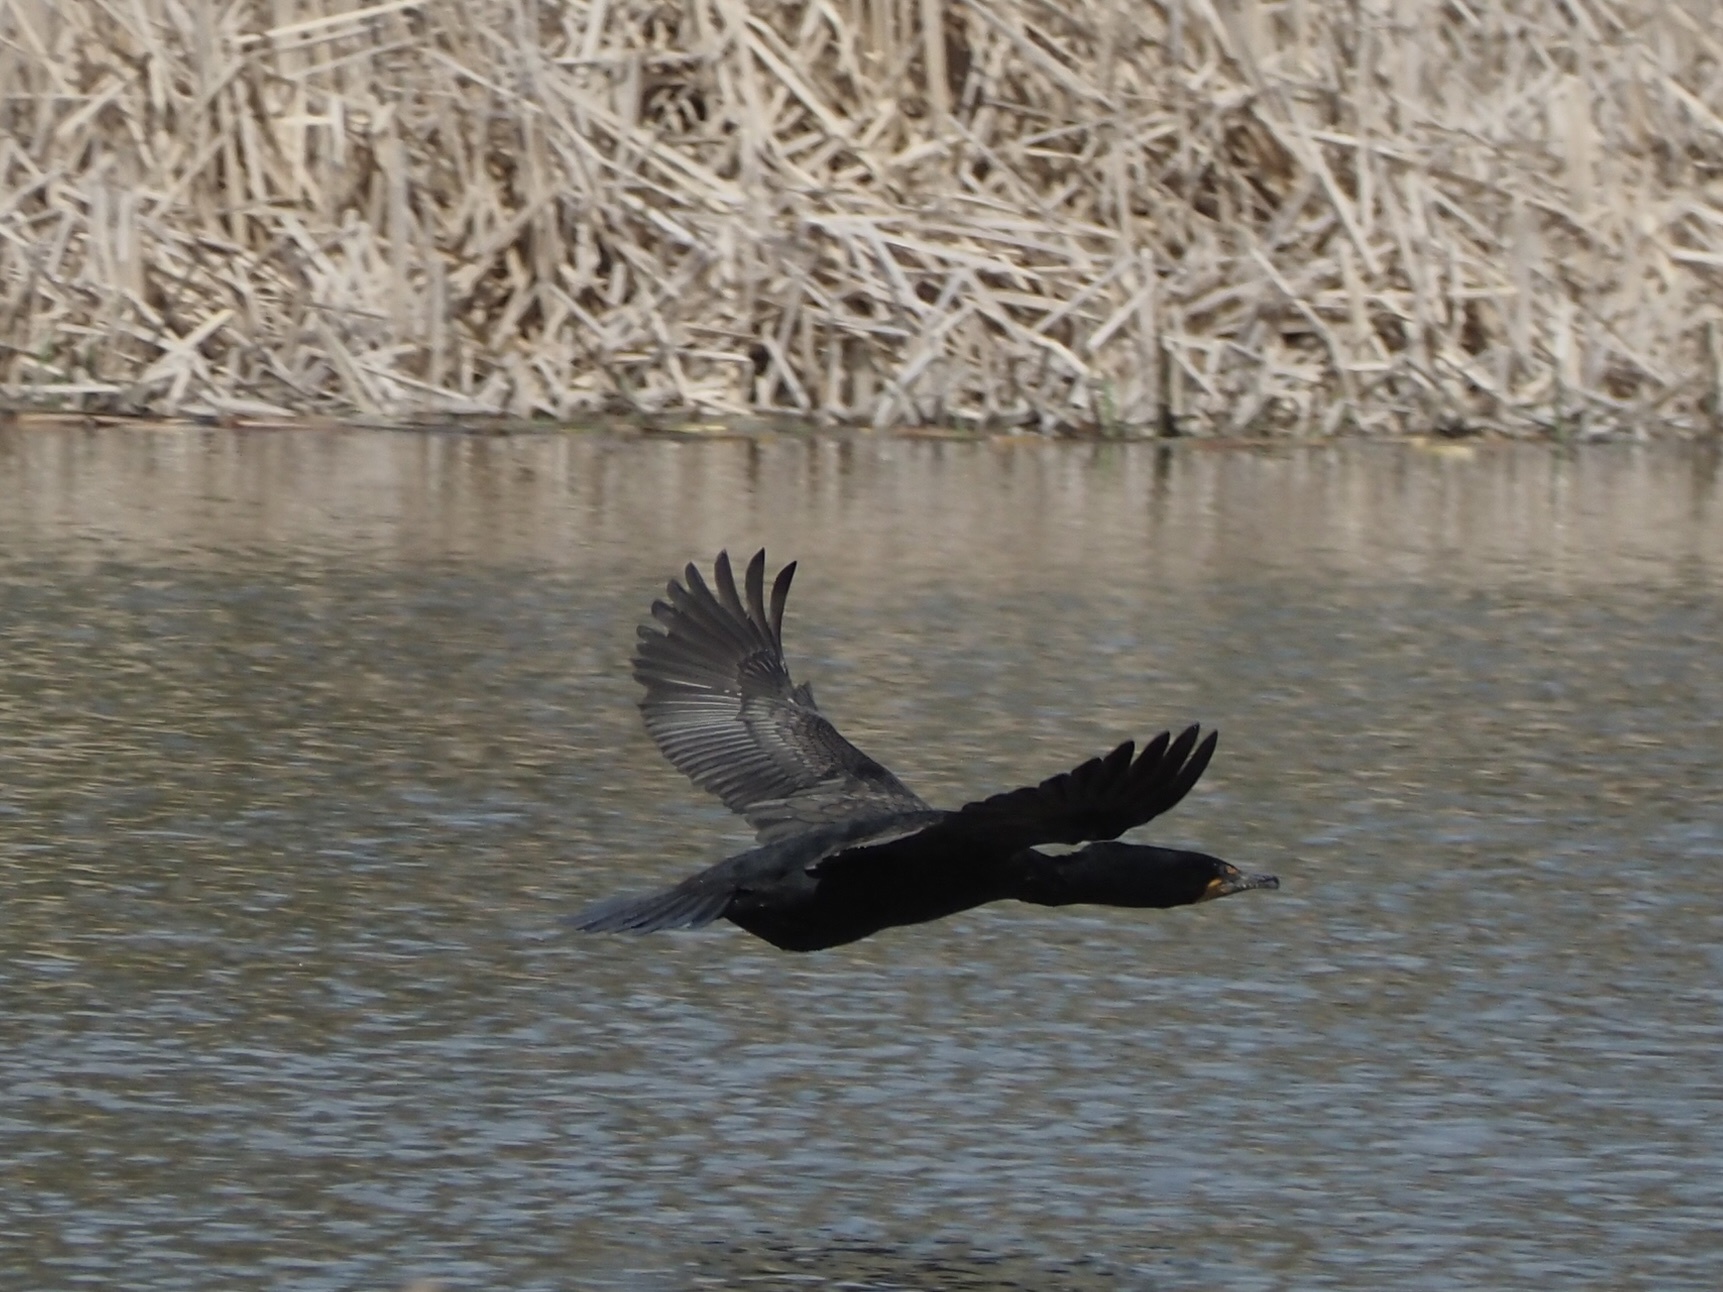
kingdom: Animalia
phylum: Chordata
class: Aves
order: Suliformes
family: Phalacrocoracidae
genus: Phalacrocorax
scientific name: Phalacrocorax auritus
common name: Double-crested cormorant
